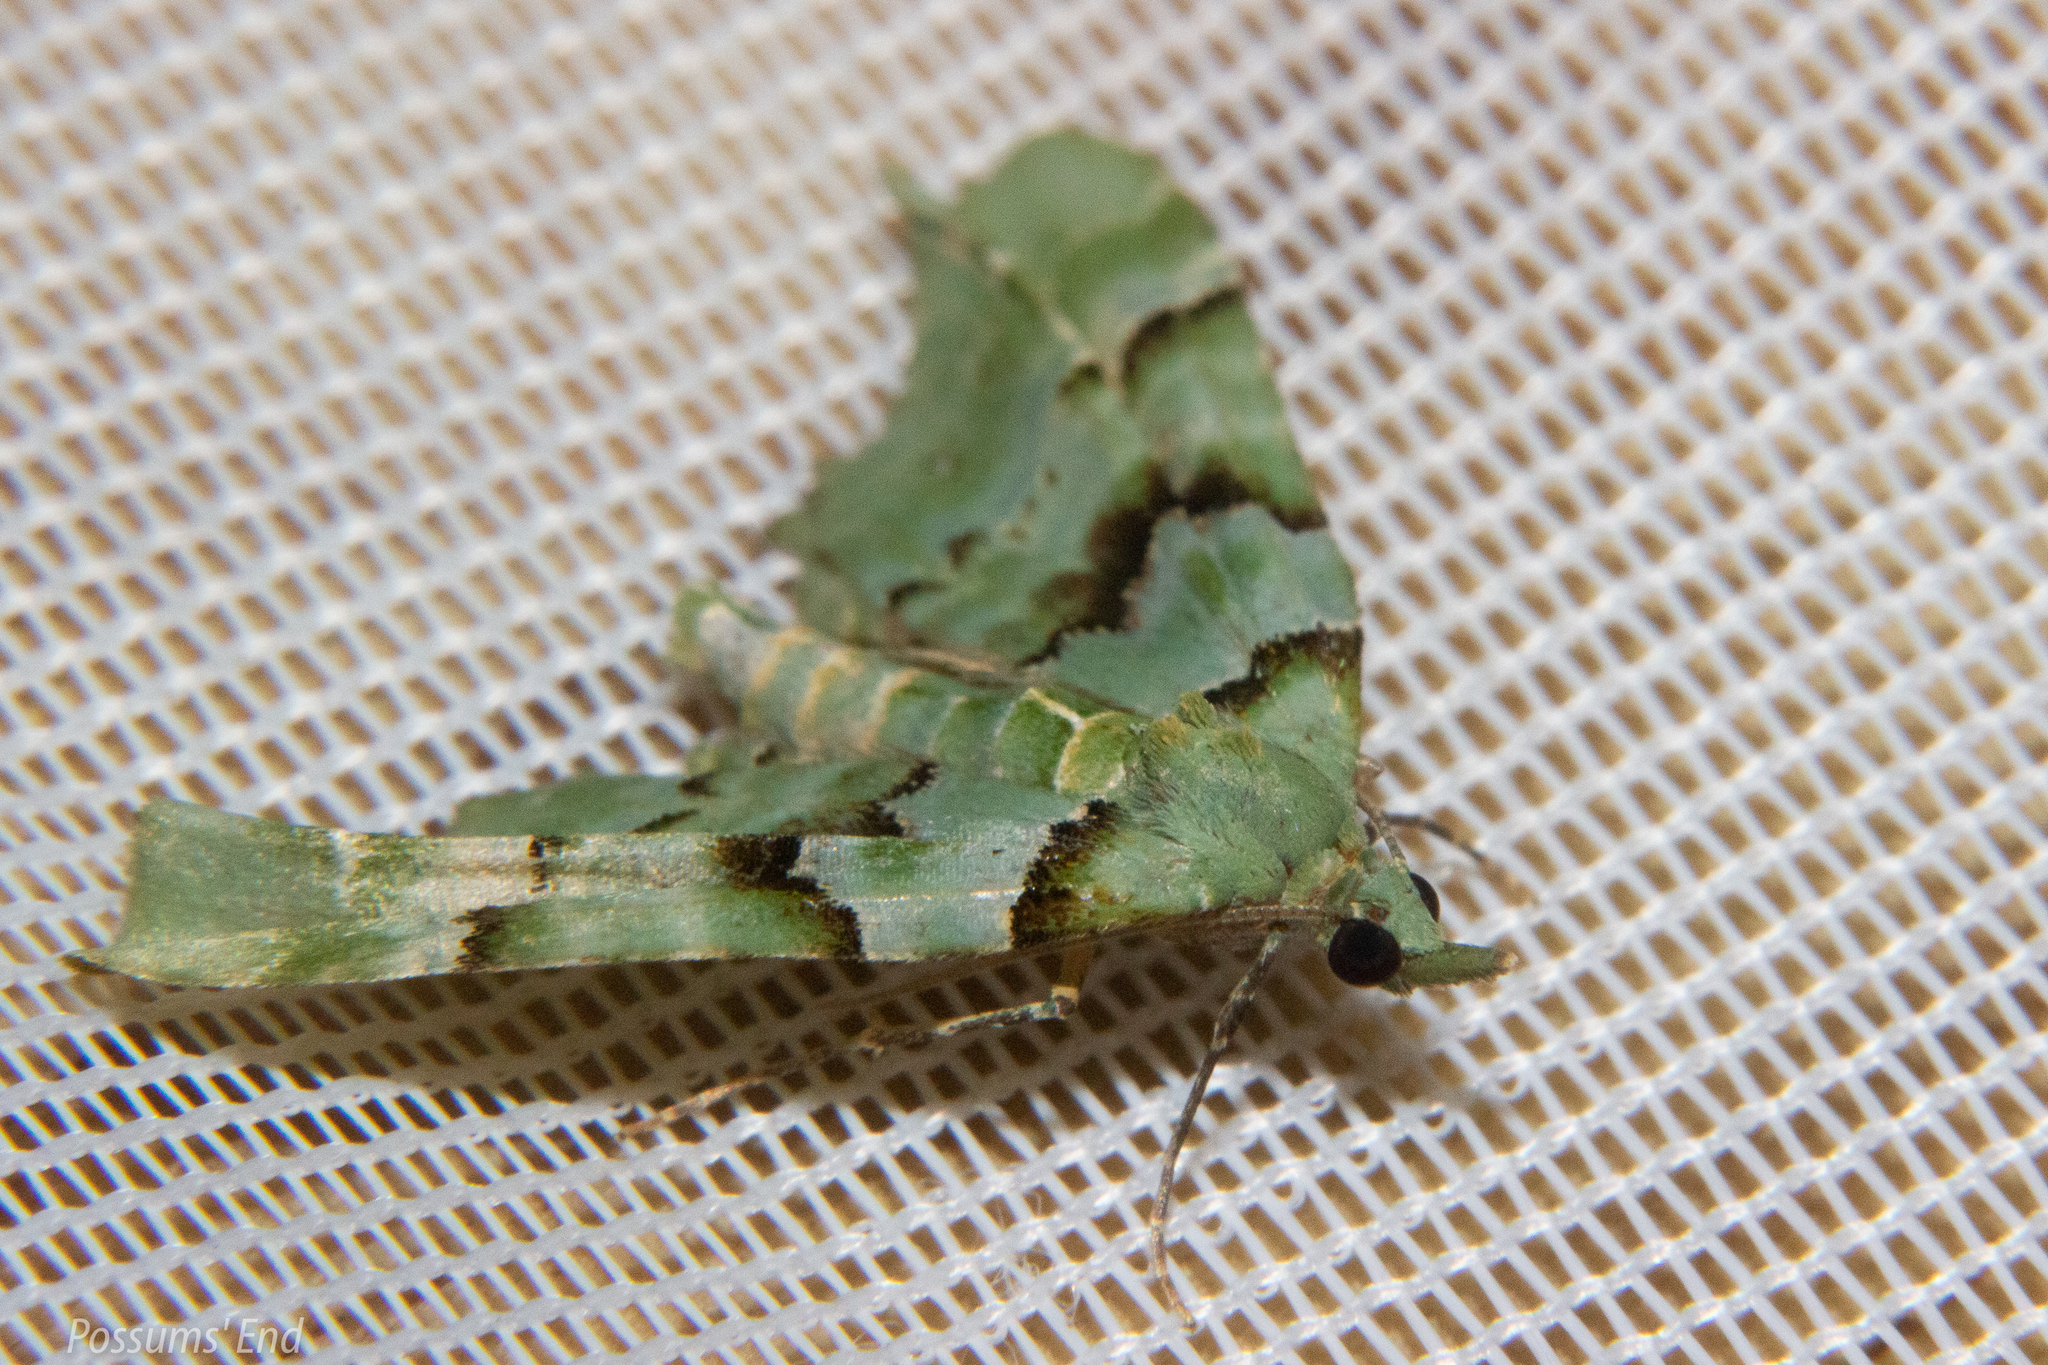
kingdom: Animalia
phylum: Arthropoda
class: Insecta
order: Lepidoptera
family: Geometridae
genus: Elvia
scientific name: Elvia glaucata
